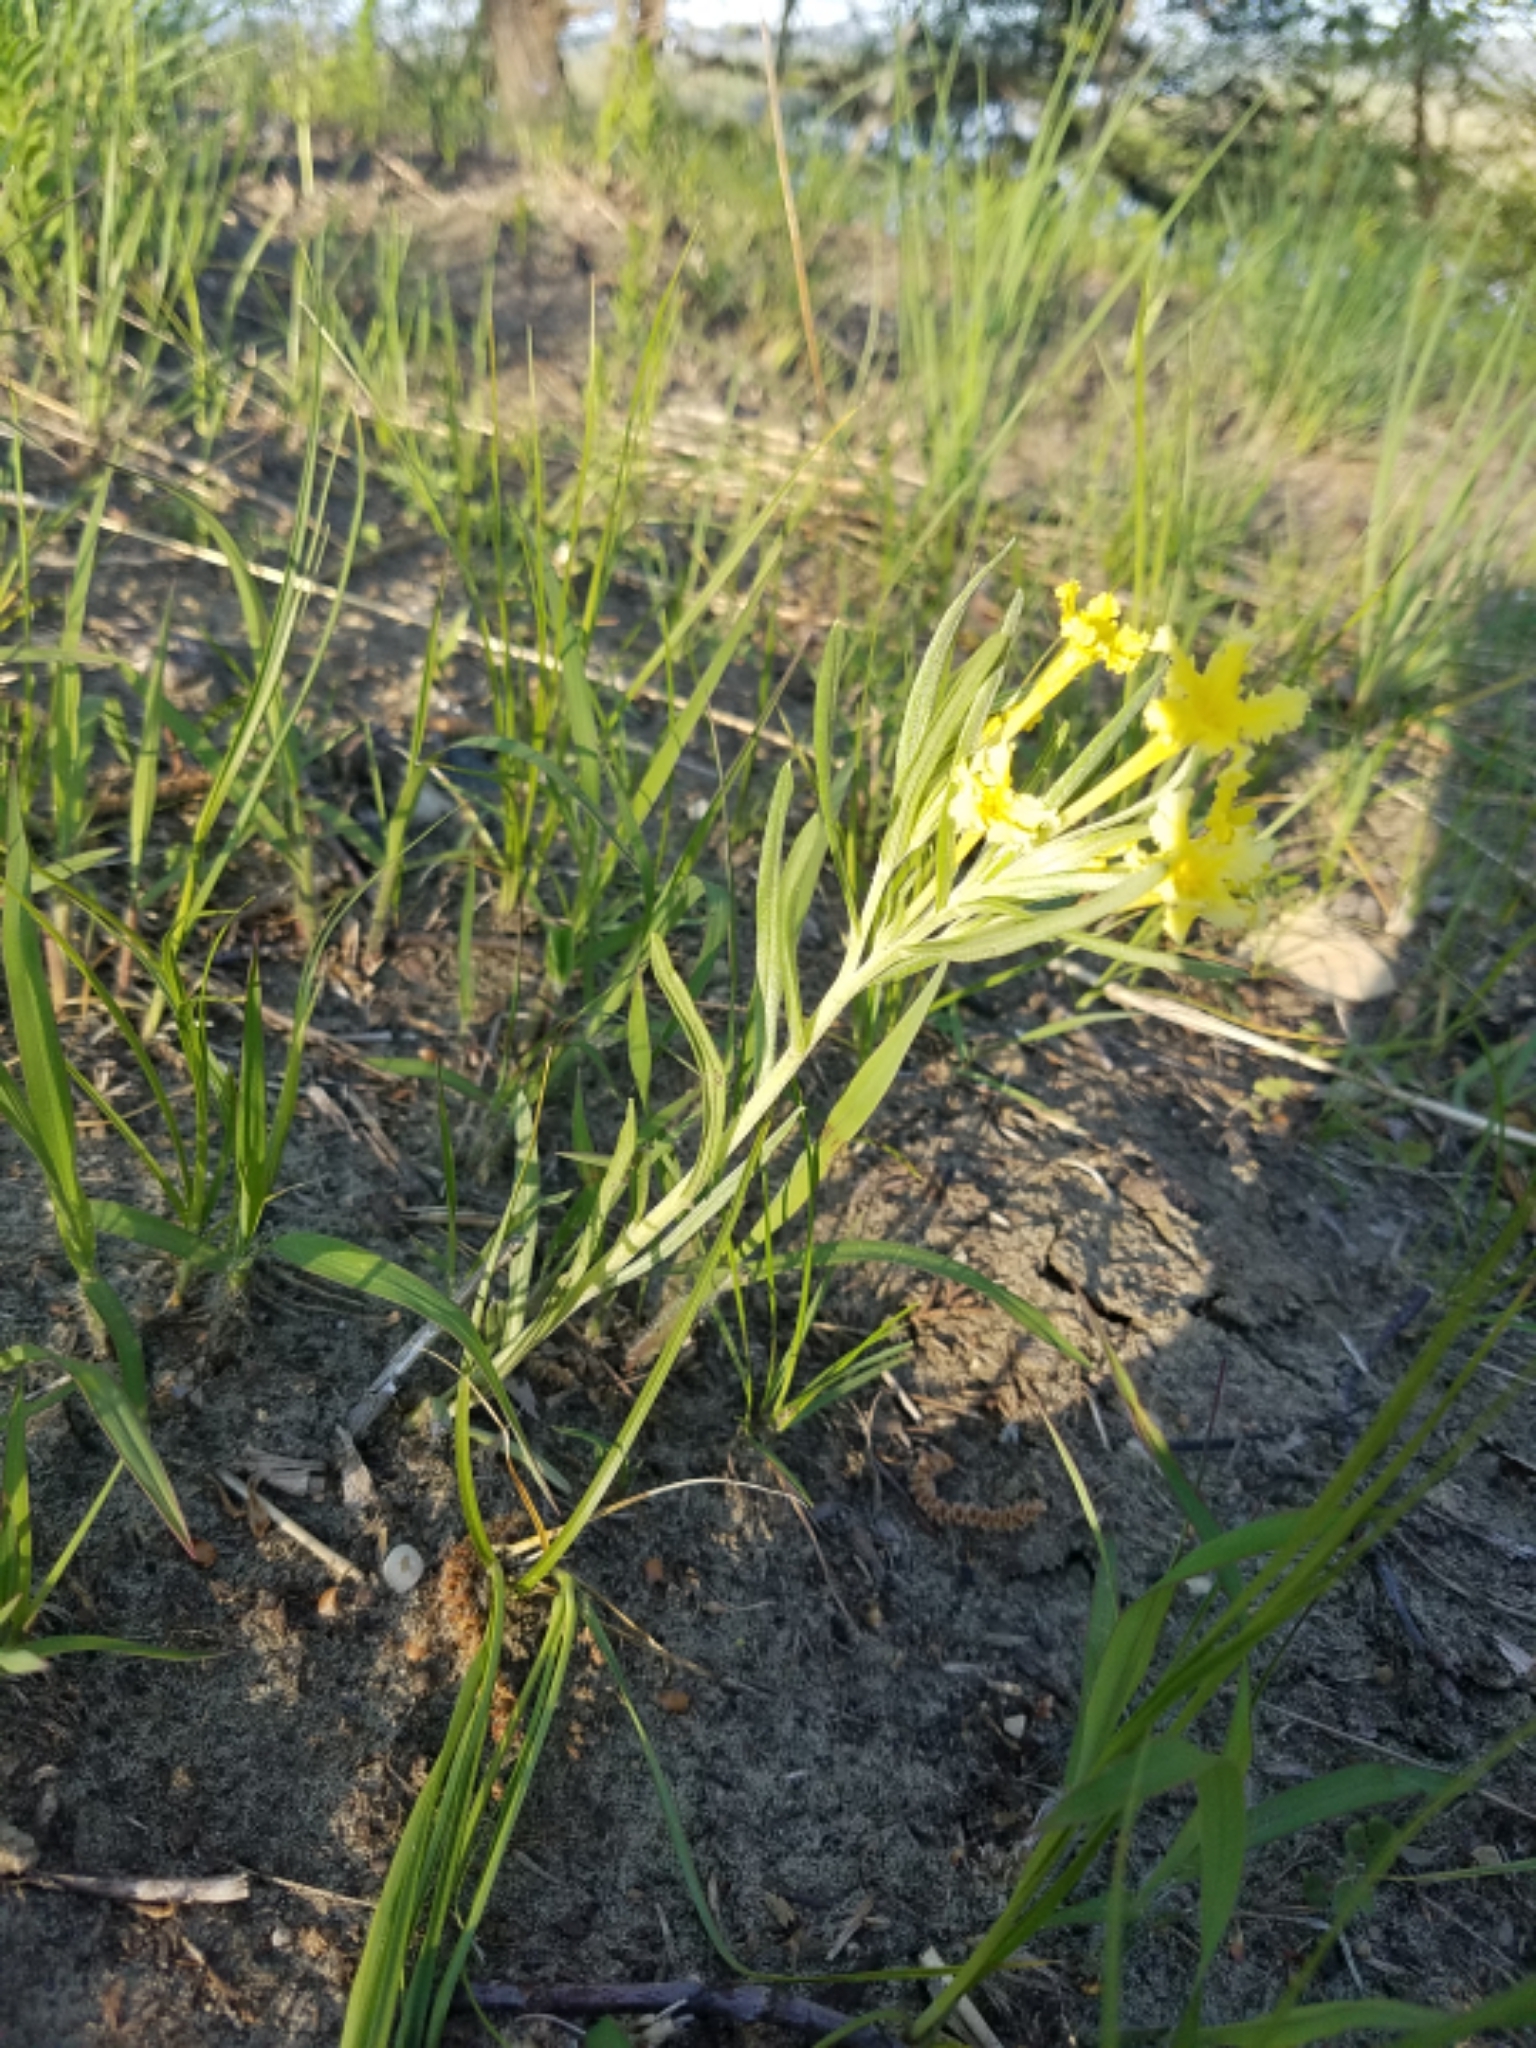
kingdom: Plantae
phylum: Tracheophyta
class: Magnoliopsida
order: Boraginales
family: Boraginaceae
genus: Lithospermum
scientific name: Lithospermum incisum
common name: Fringed gromwell
